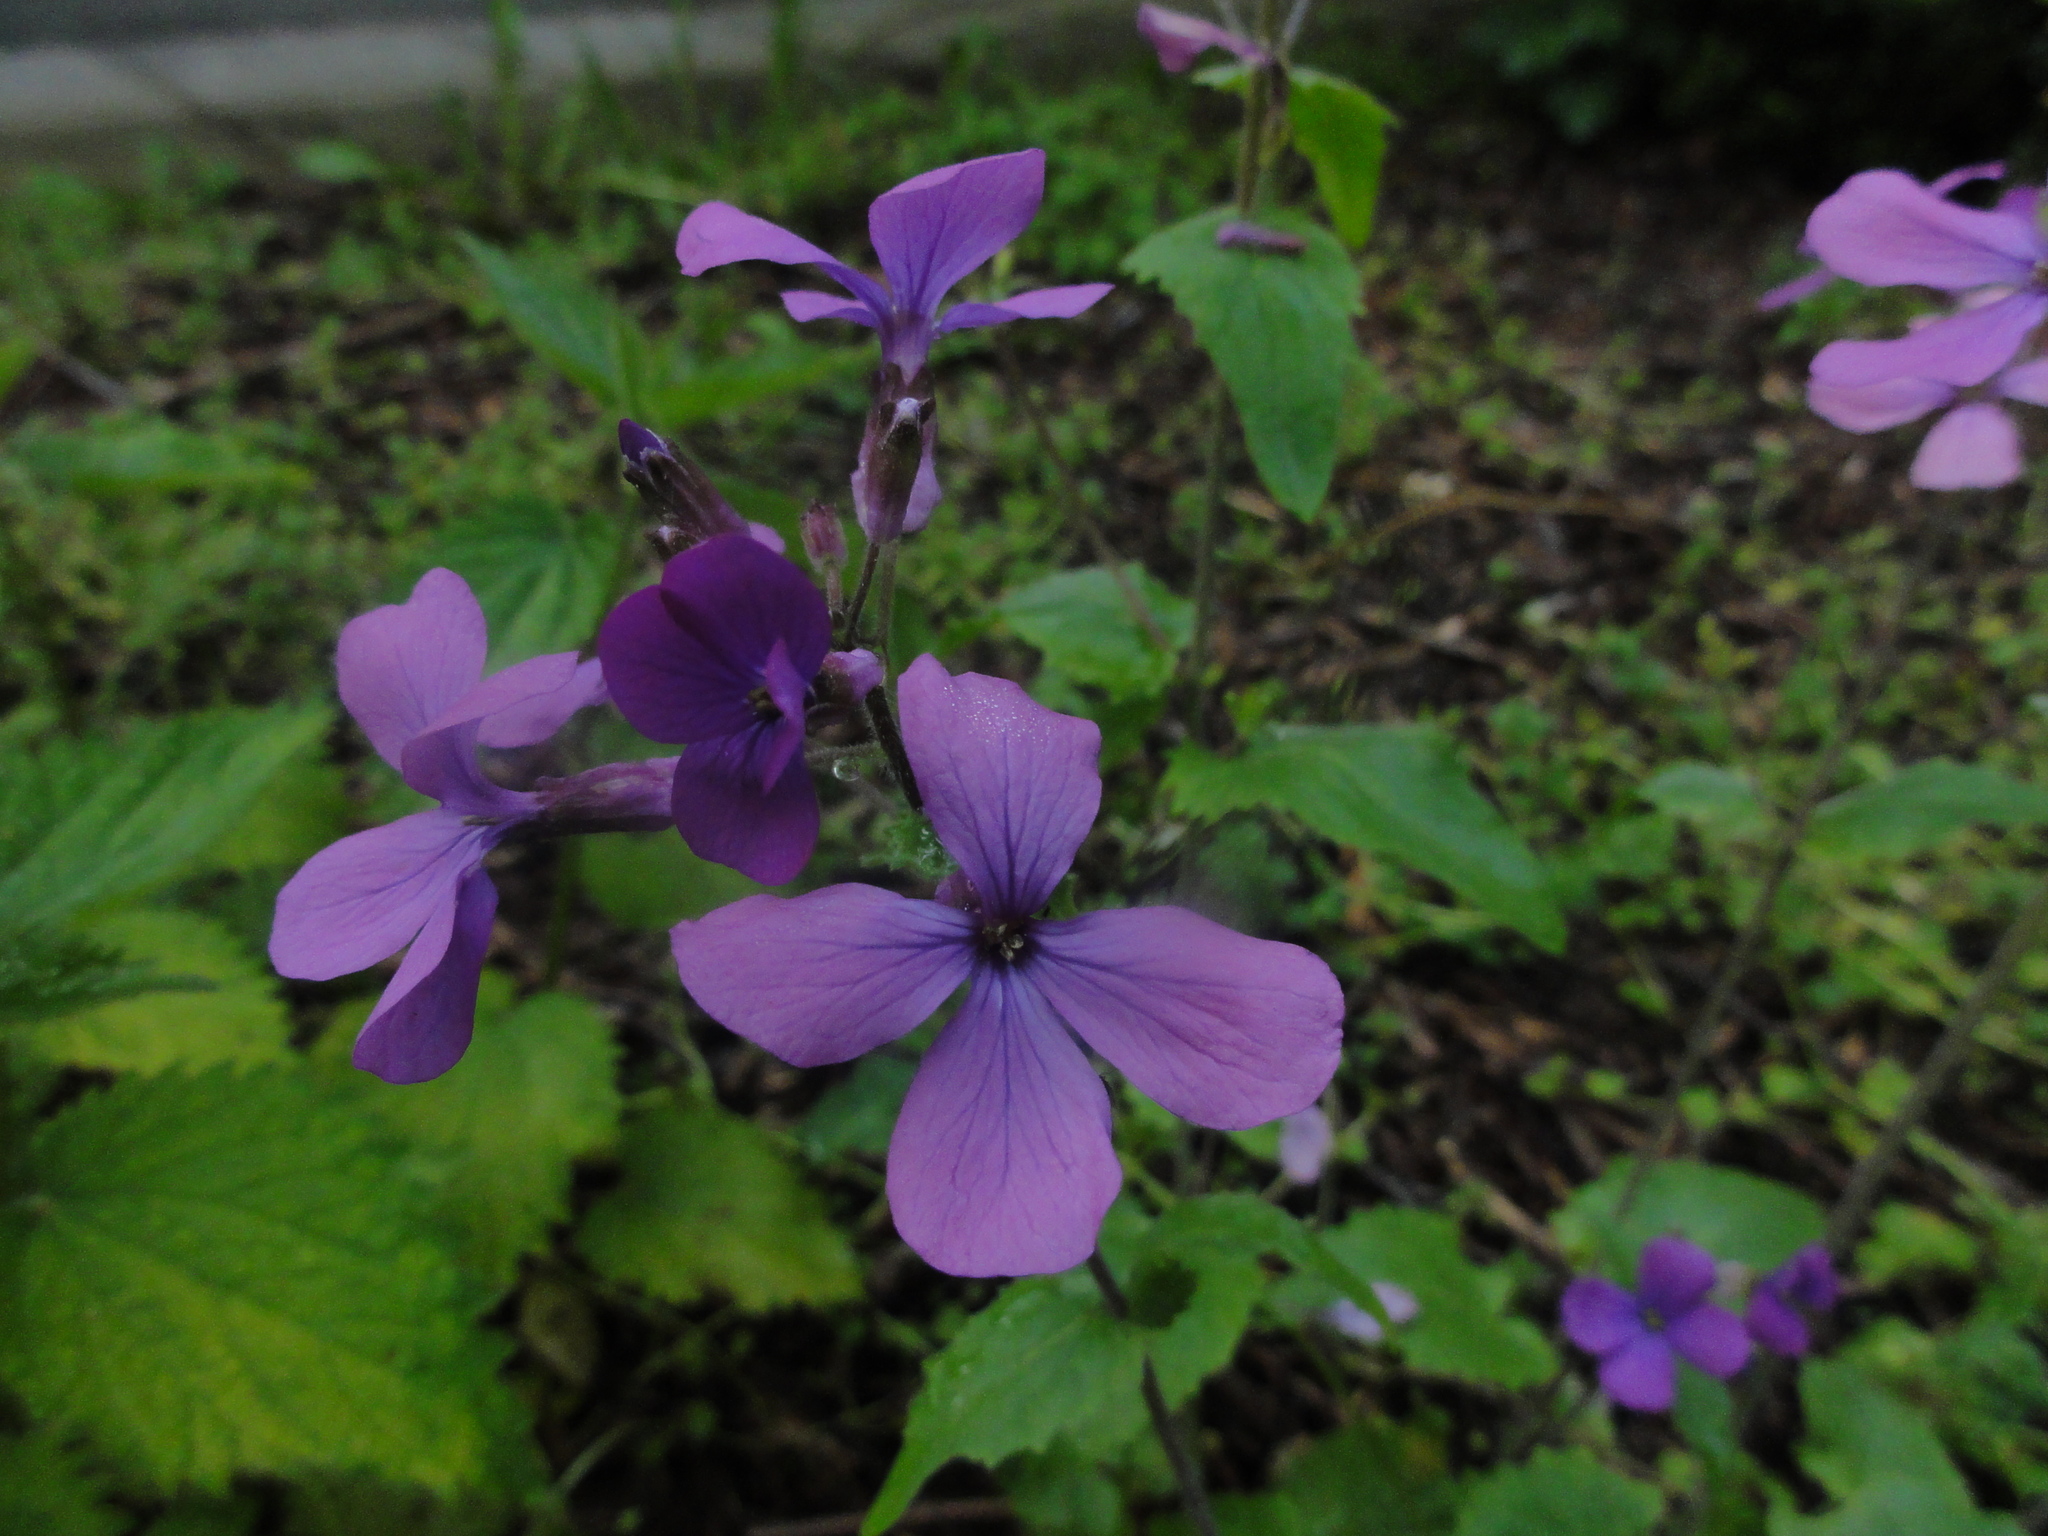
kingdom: Plantae
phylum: Tracheophyta
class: Magnoliopsida
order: Brassicales
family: Brassicaceae
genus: Lunaria
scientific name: Lunaria annua
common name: Honesty
